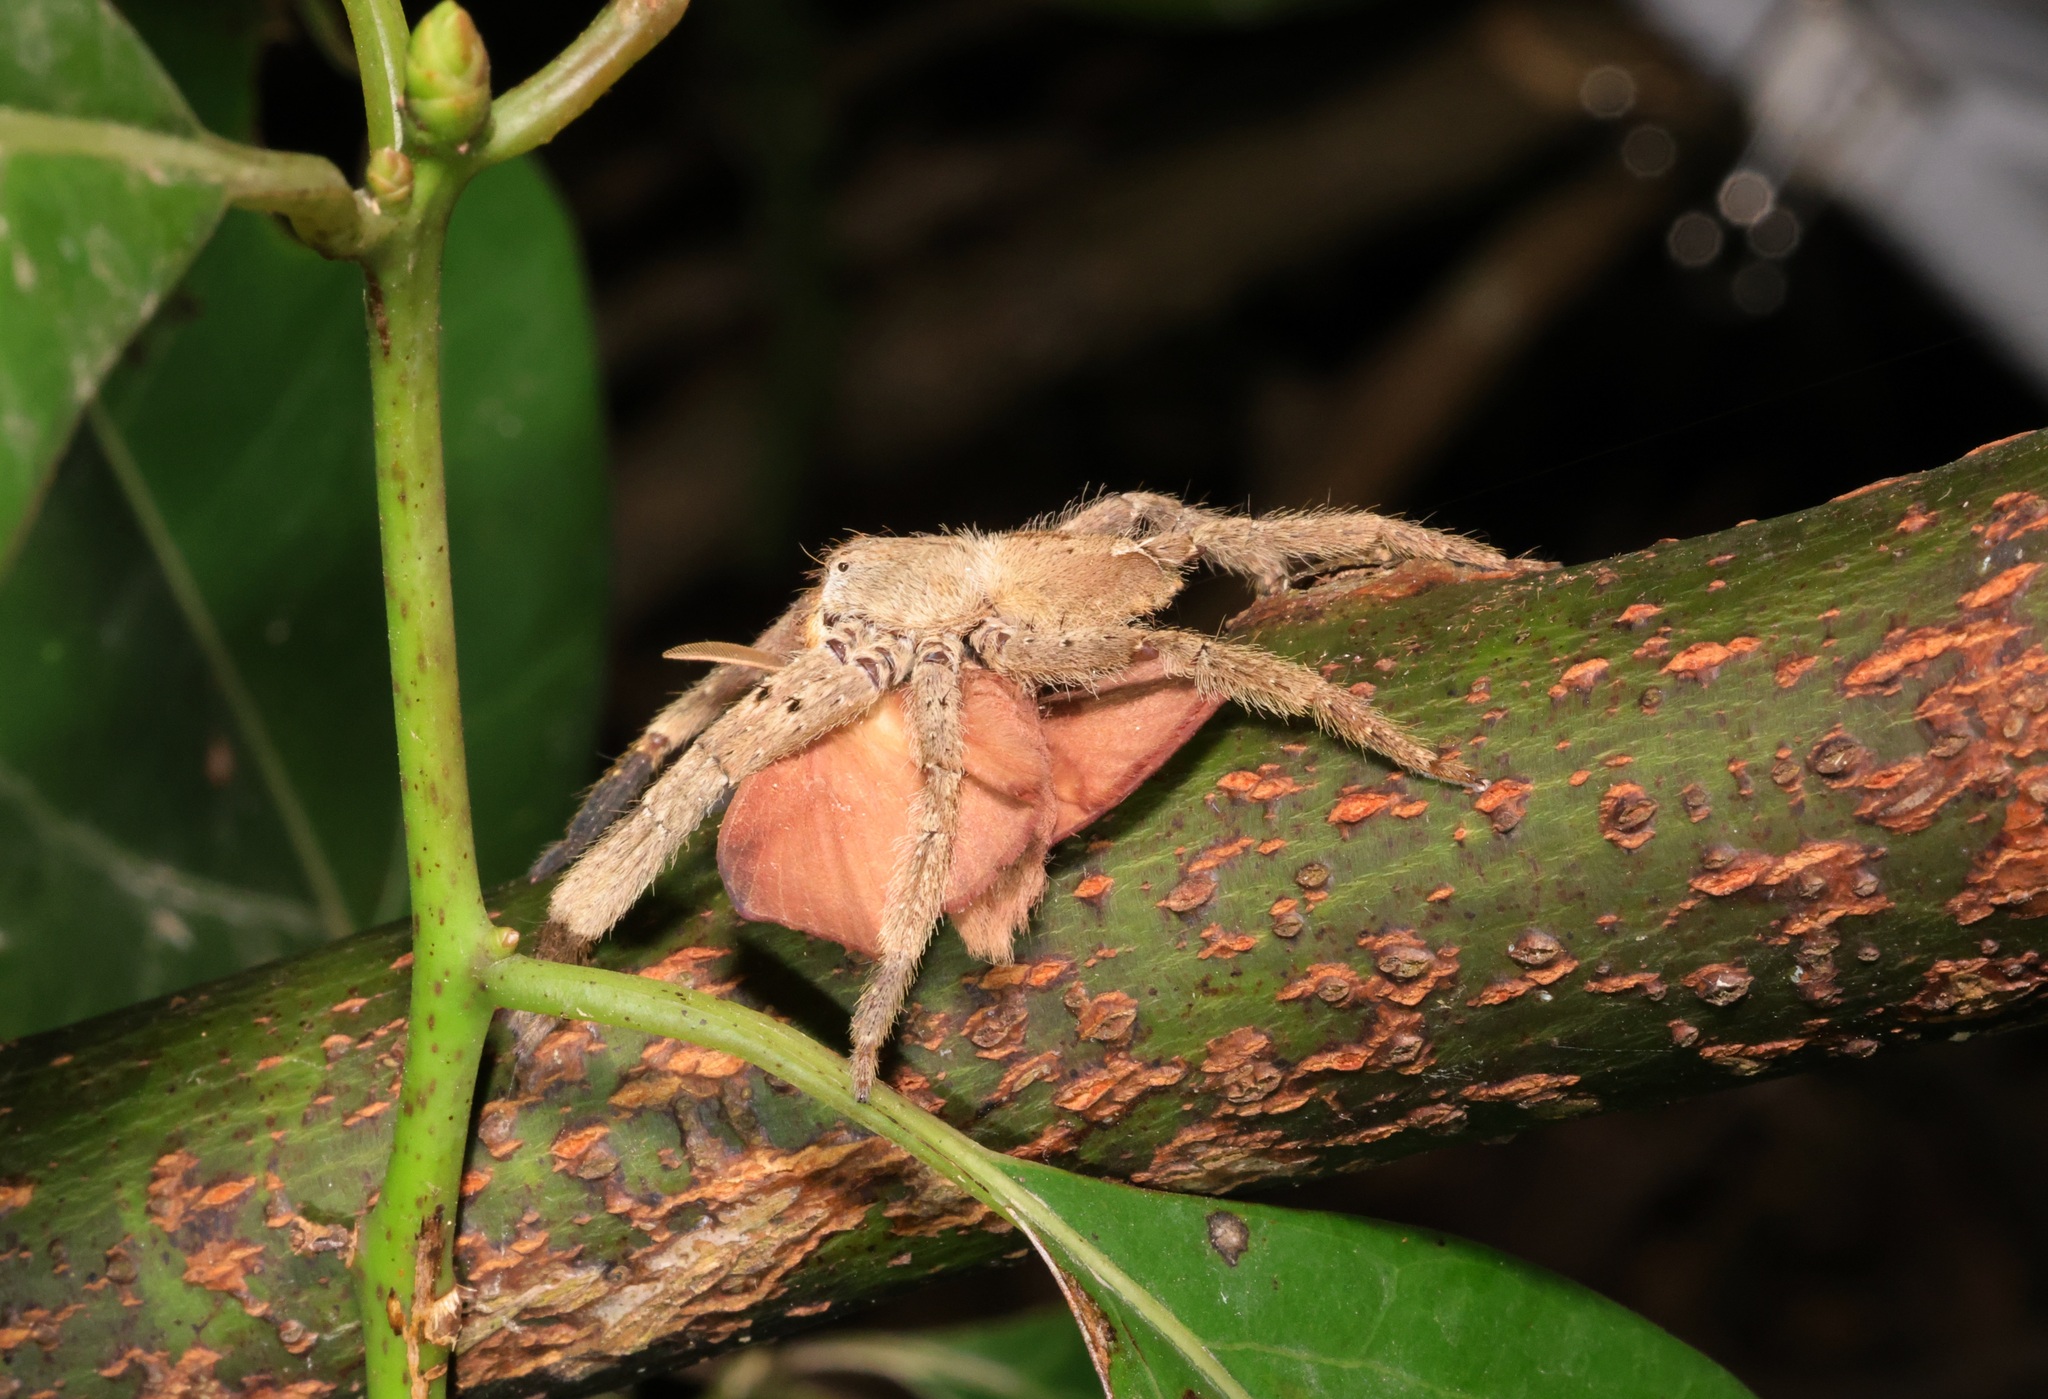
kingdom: Animalia
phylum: Arthropoda
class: Arachnida
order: Araneae
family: Sparassidae
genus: Heteropoda
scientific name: Heteropoda pingtungensis
